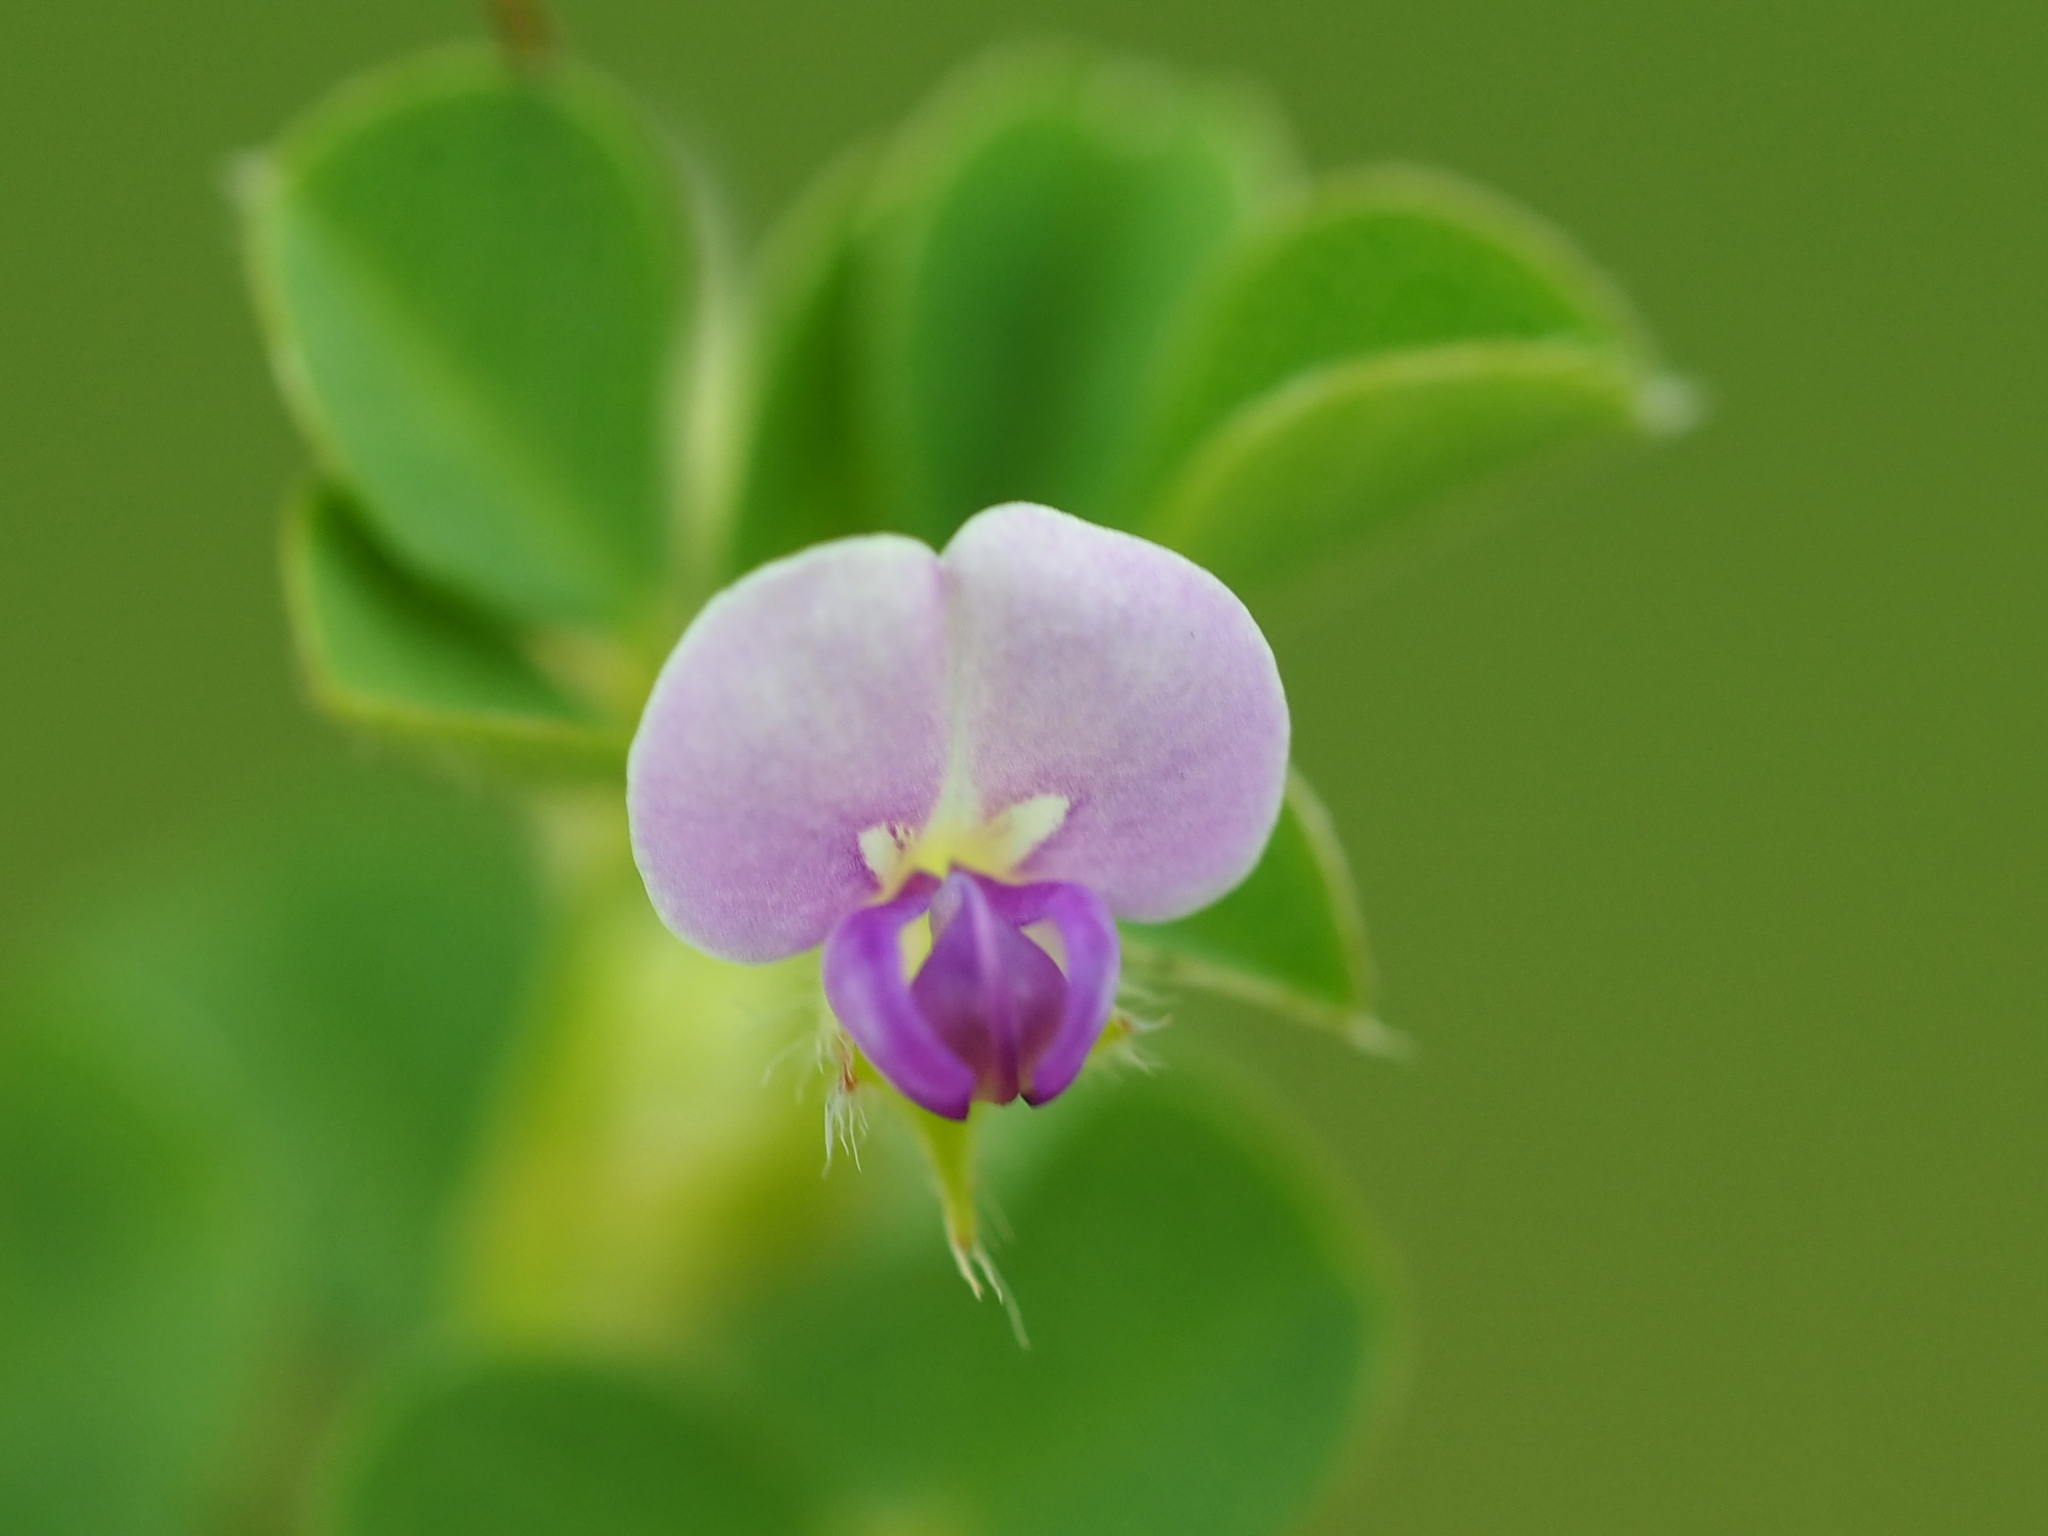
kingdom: Plantae
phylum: Tracheophyta
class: Magnoliopsida
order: Fabales
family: Fabaceae
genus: Grona
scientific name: Grona triflora
